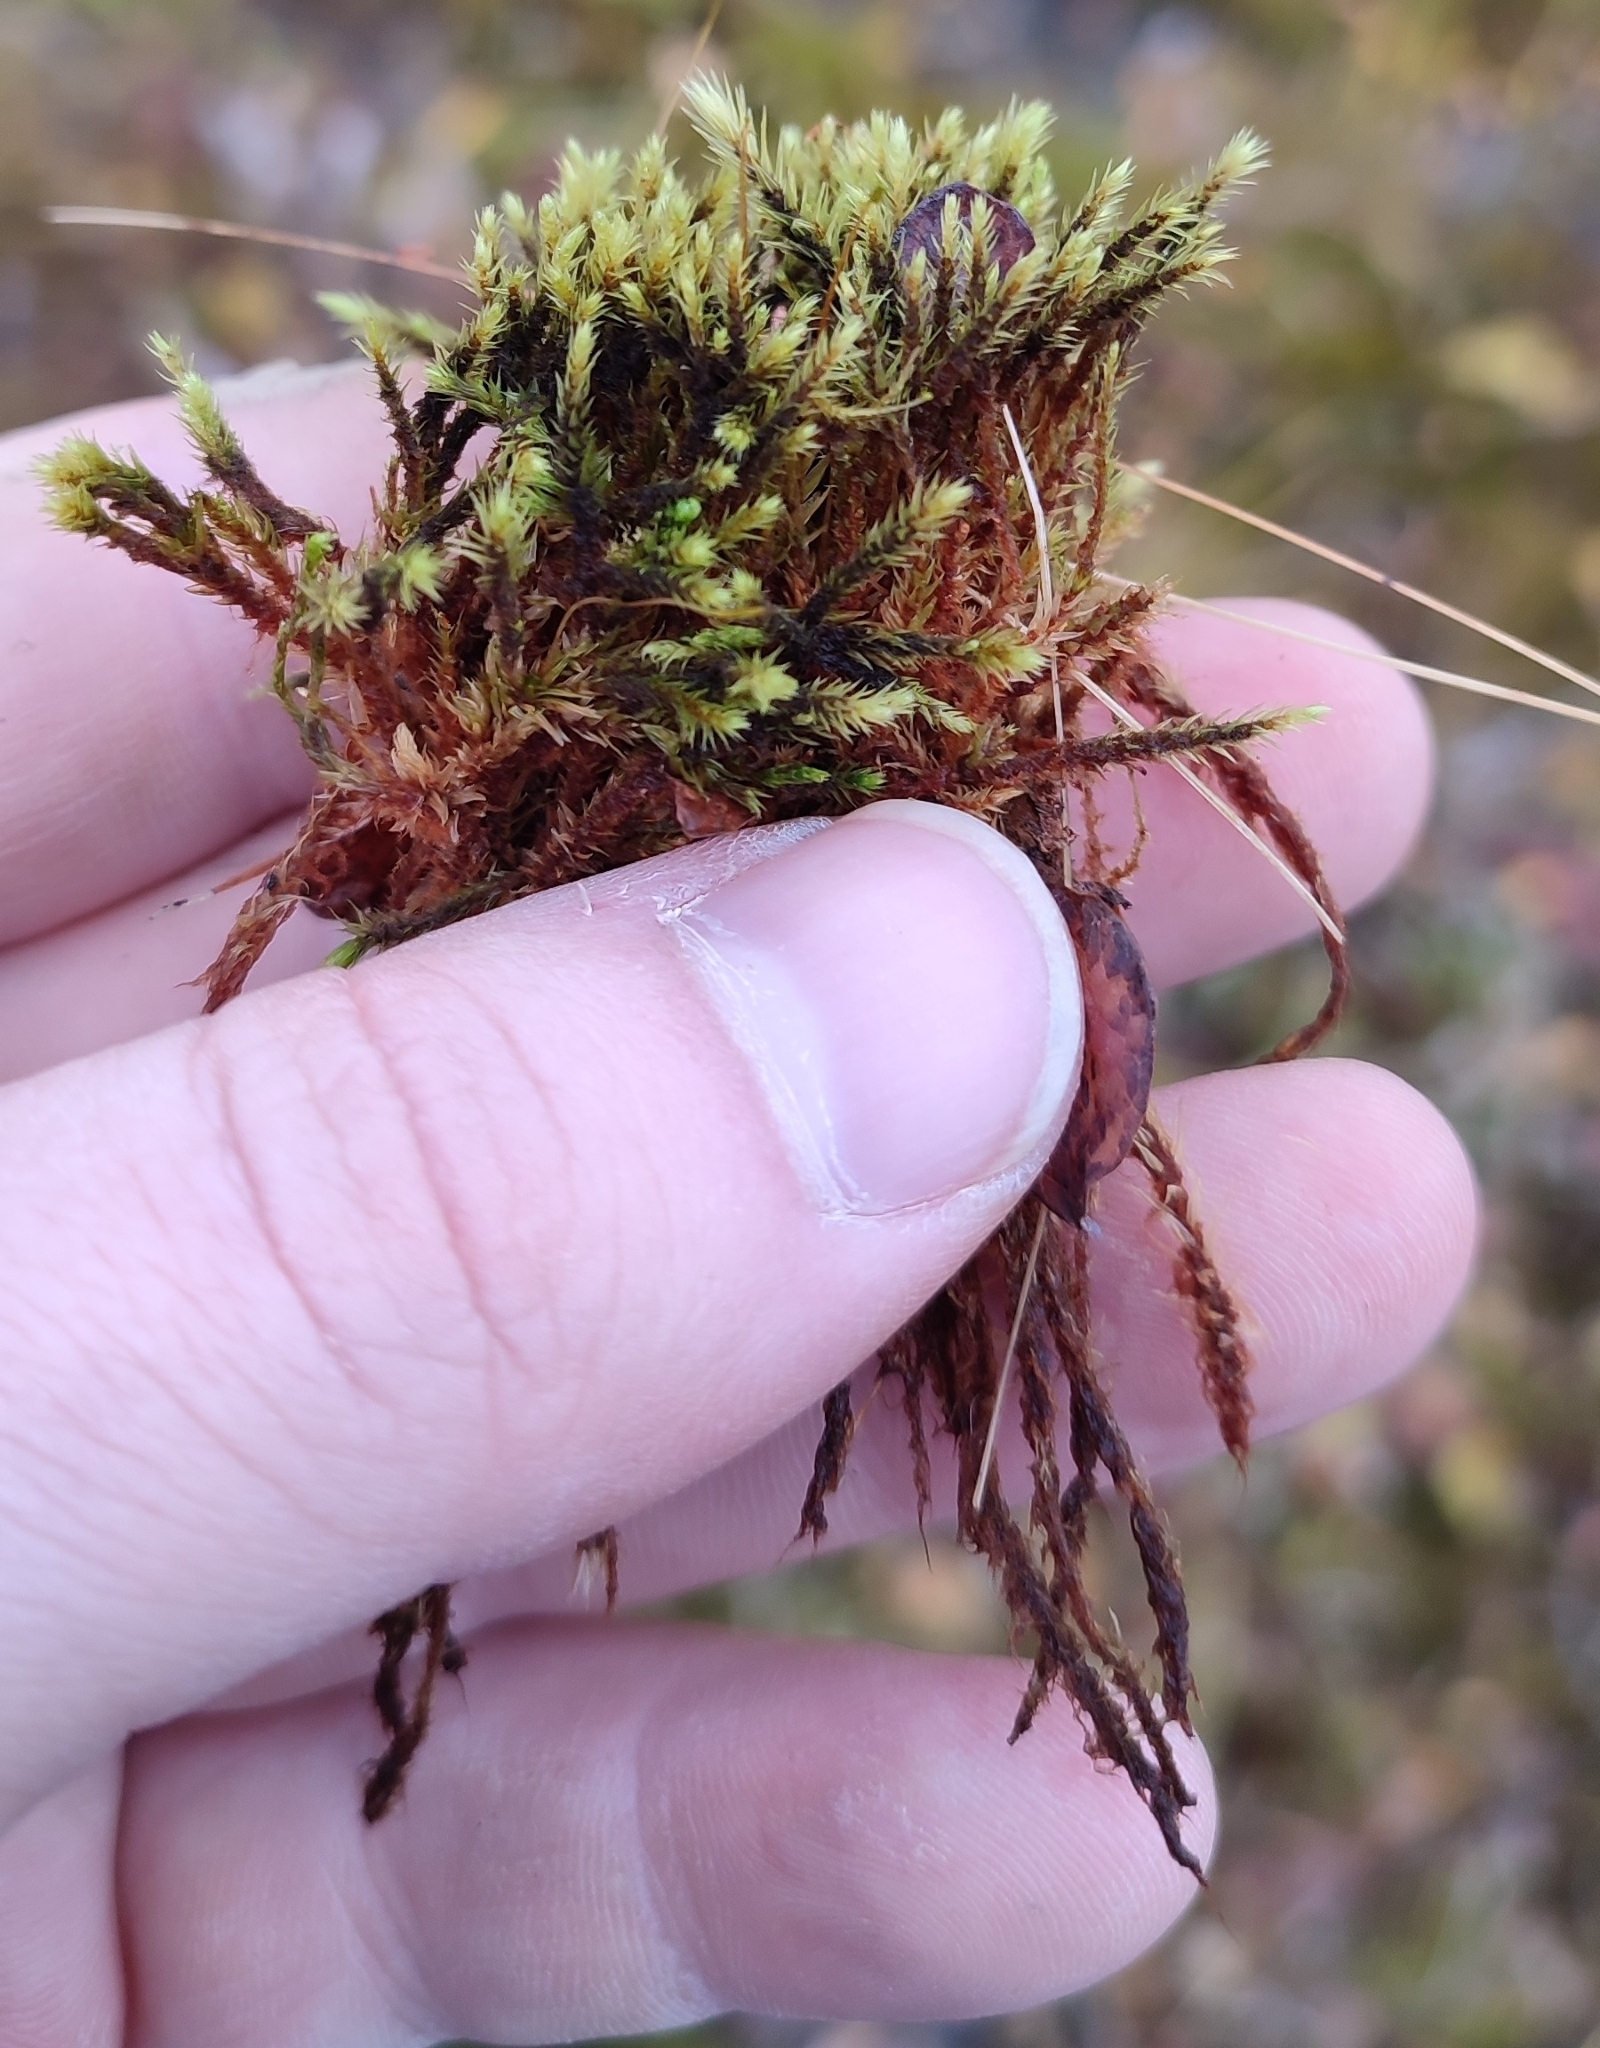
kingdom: Plantae
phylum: Bryophyta
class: Bryopsida
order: Aulacomniales
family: Aulacomniaceae
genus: Aulacomnium
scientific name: Aulacomnium palustre
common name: Bog groove-moss
